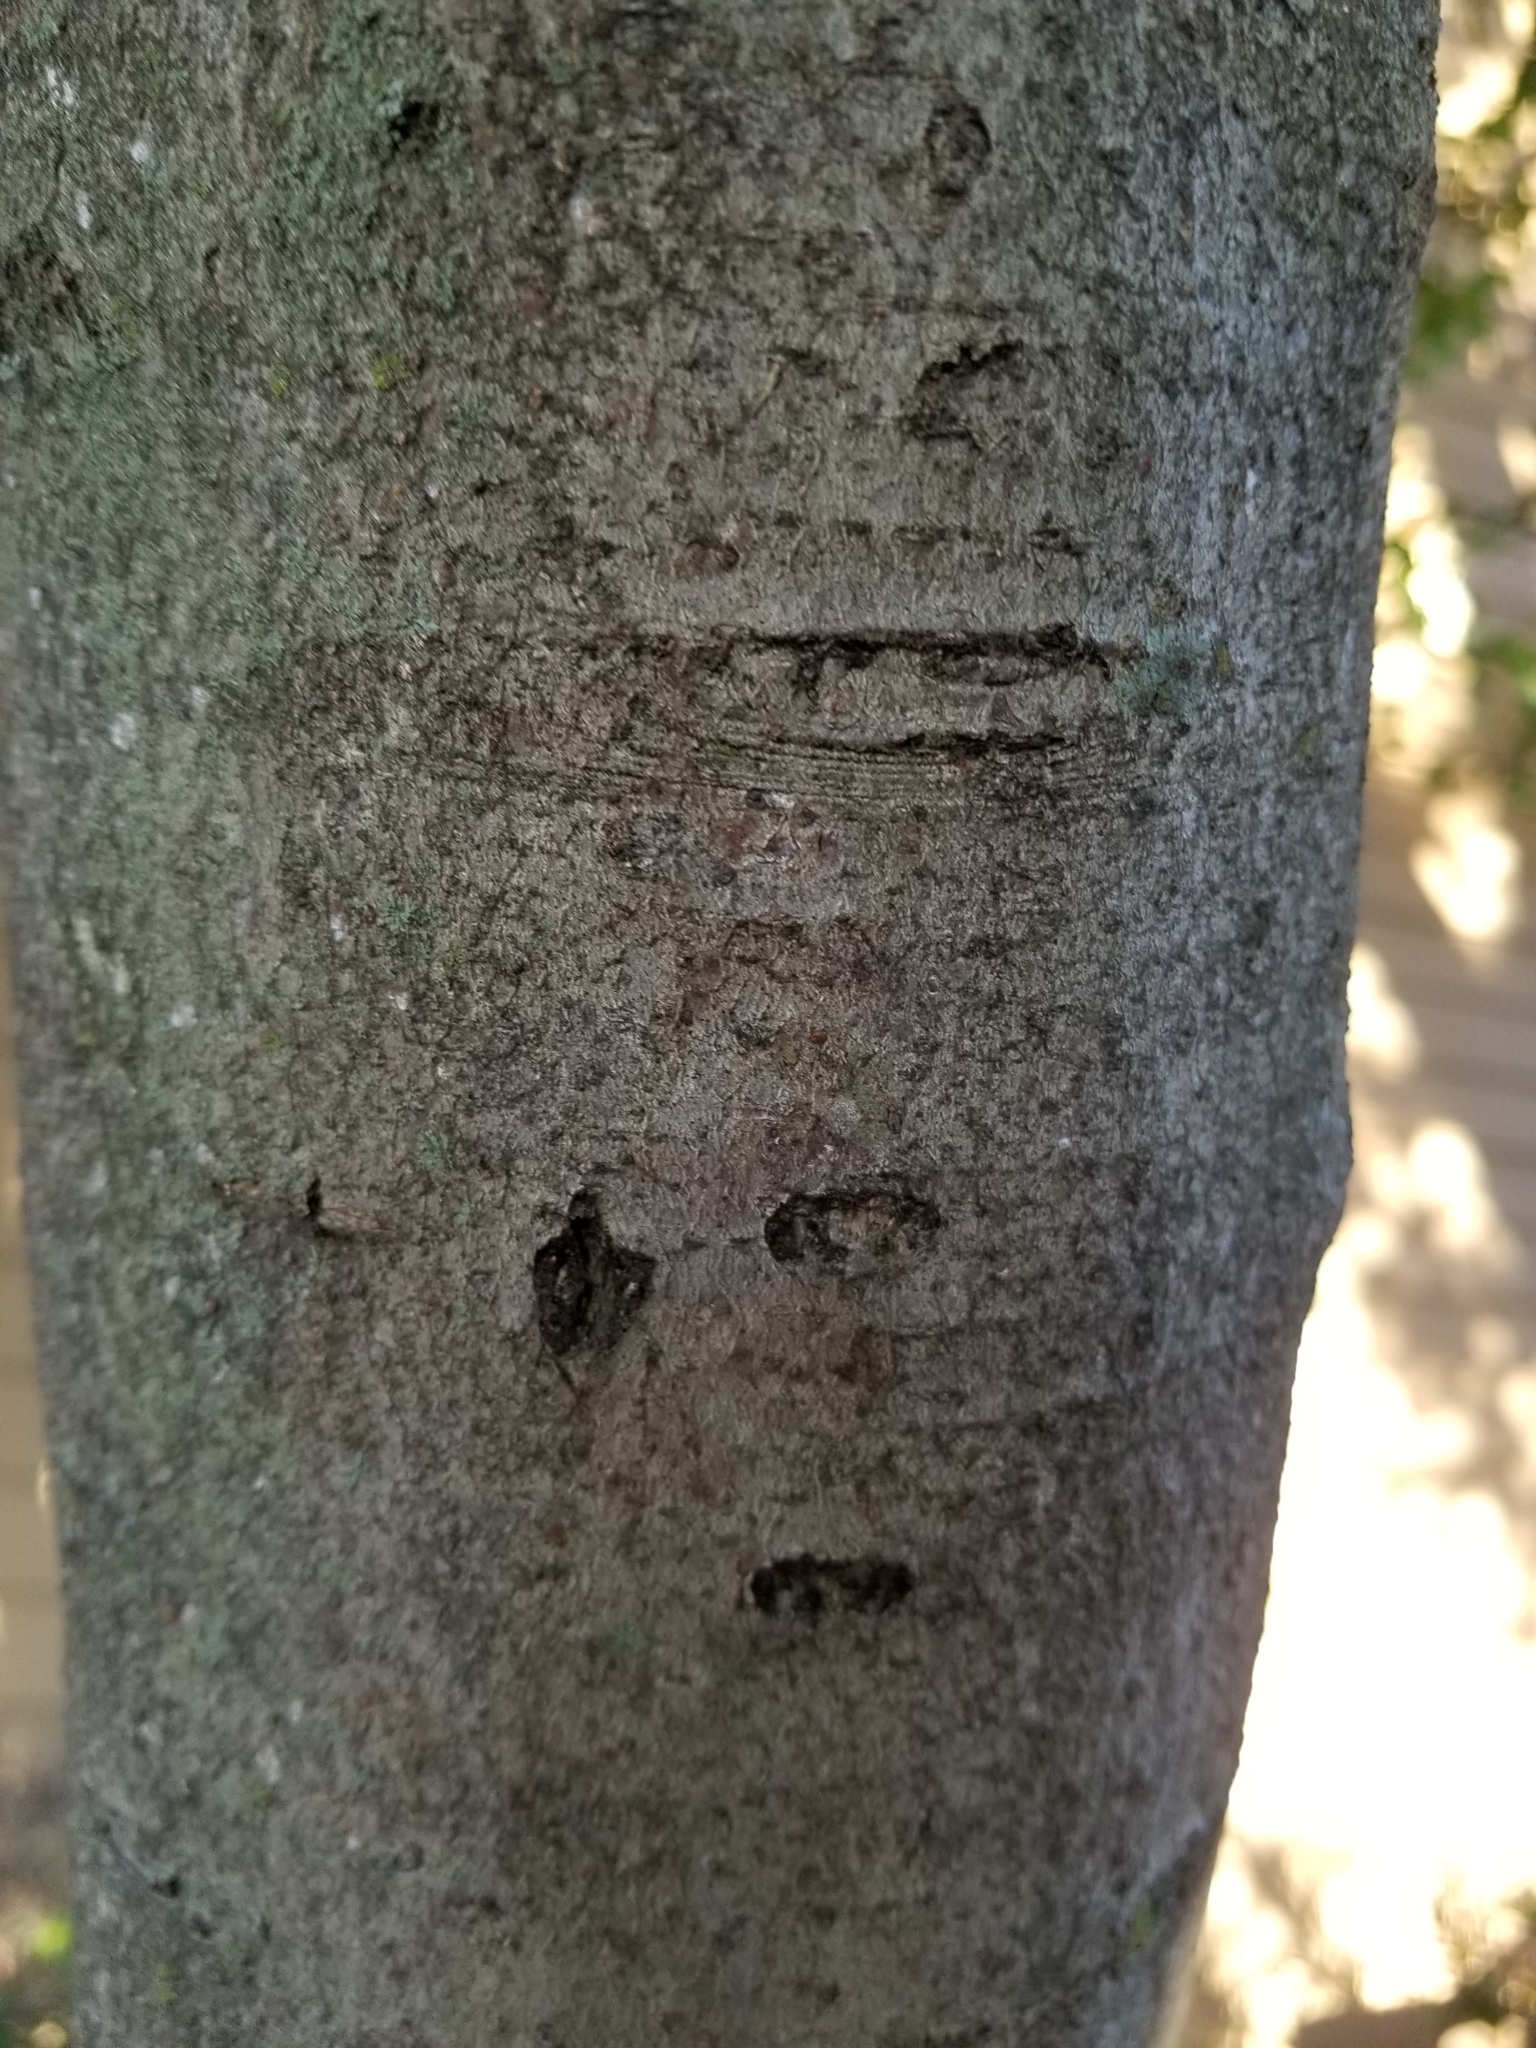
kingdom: Plantae
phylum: Tracheophyta
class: Magnoliopsida
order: Aquifoliales
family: Aquifoliaceae
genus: Ilex
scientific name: Ilex vomitoria
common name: Yaupon holly
